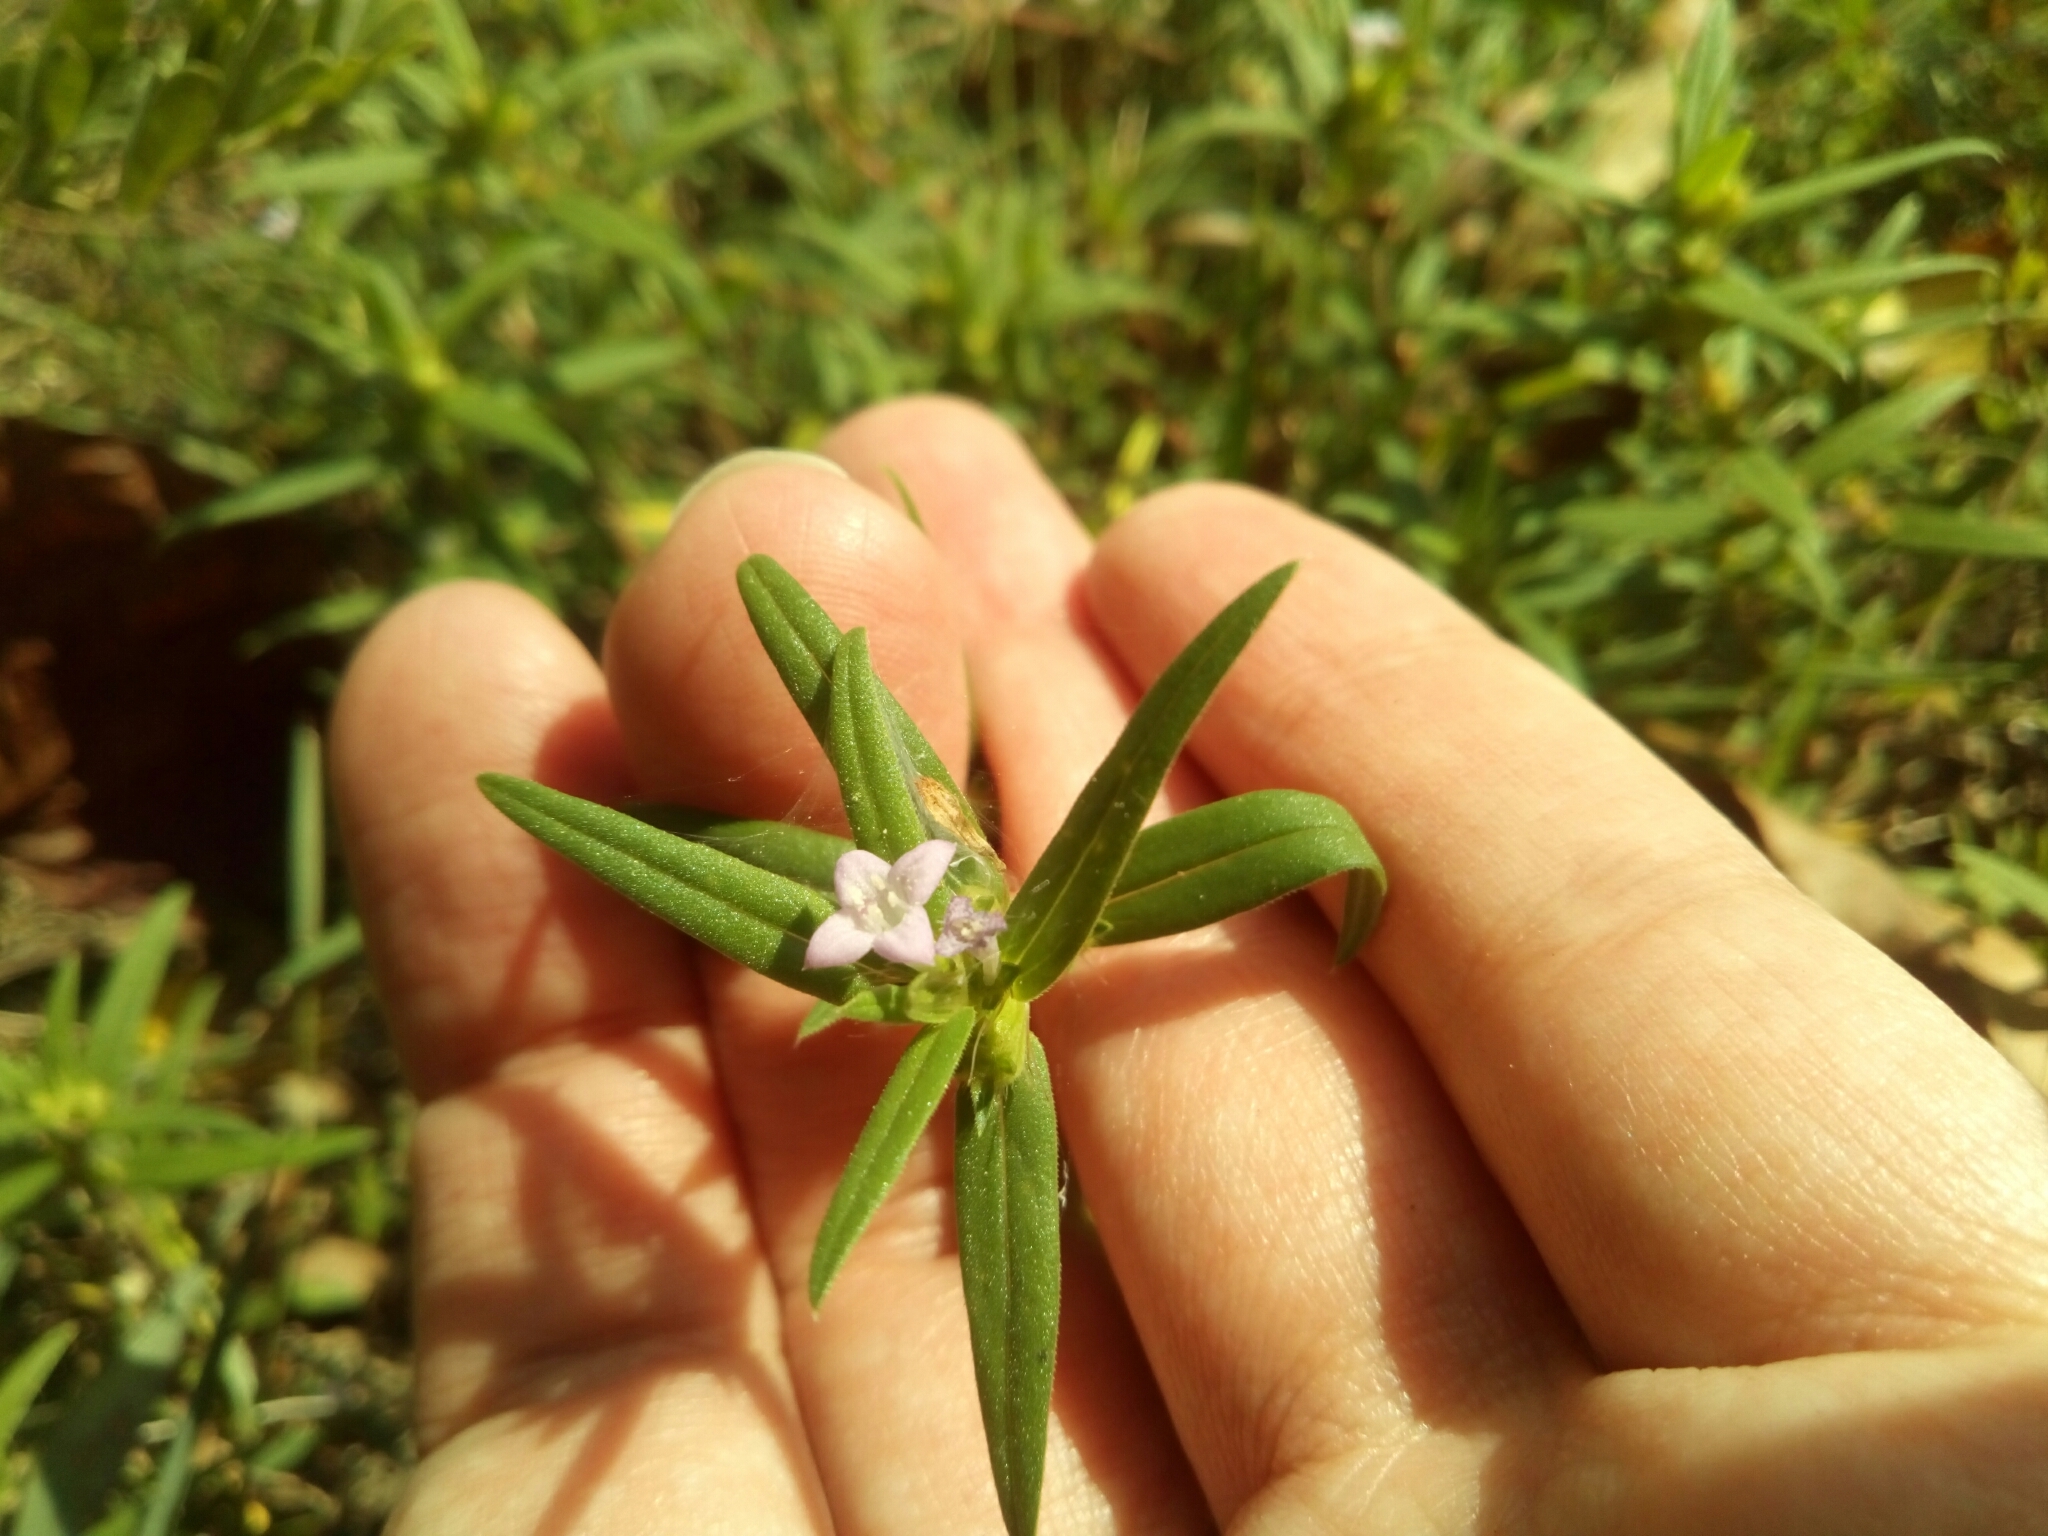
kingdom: Plantae
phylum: Tracheophyta
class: Magnoliopsida
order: Gentianales
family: Rubiaceae
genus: Hexasepalum
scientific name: Hexasepalum teres
